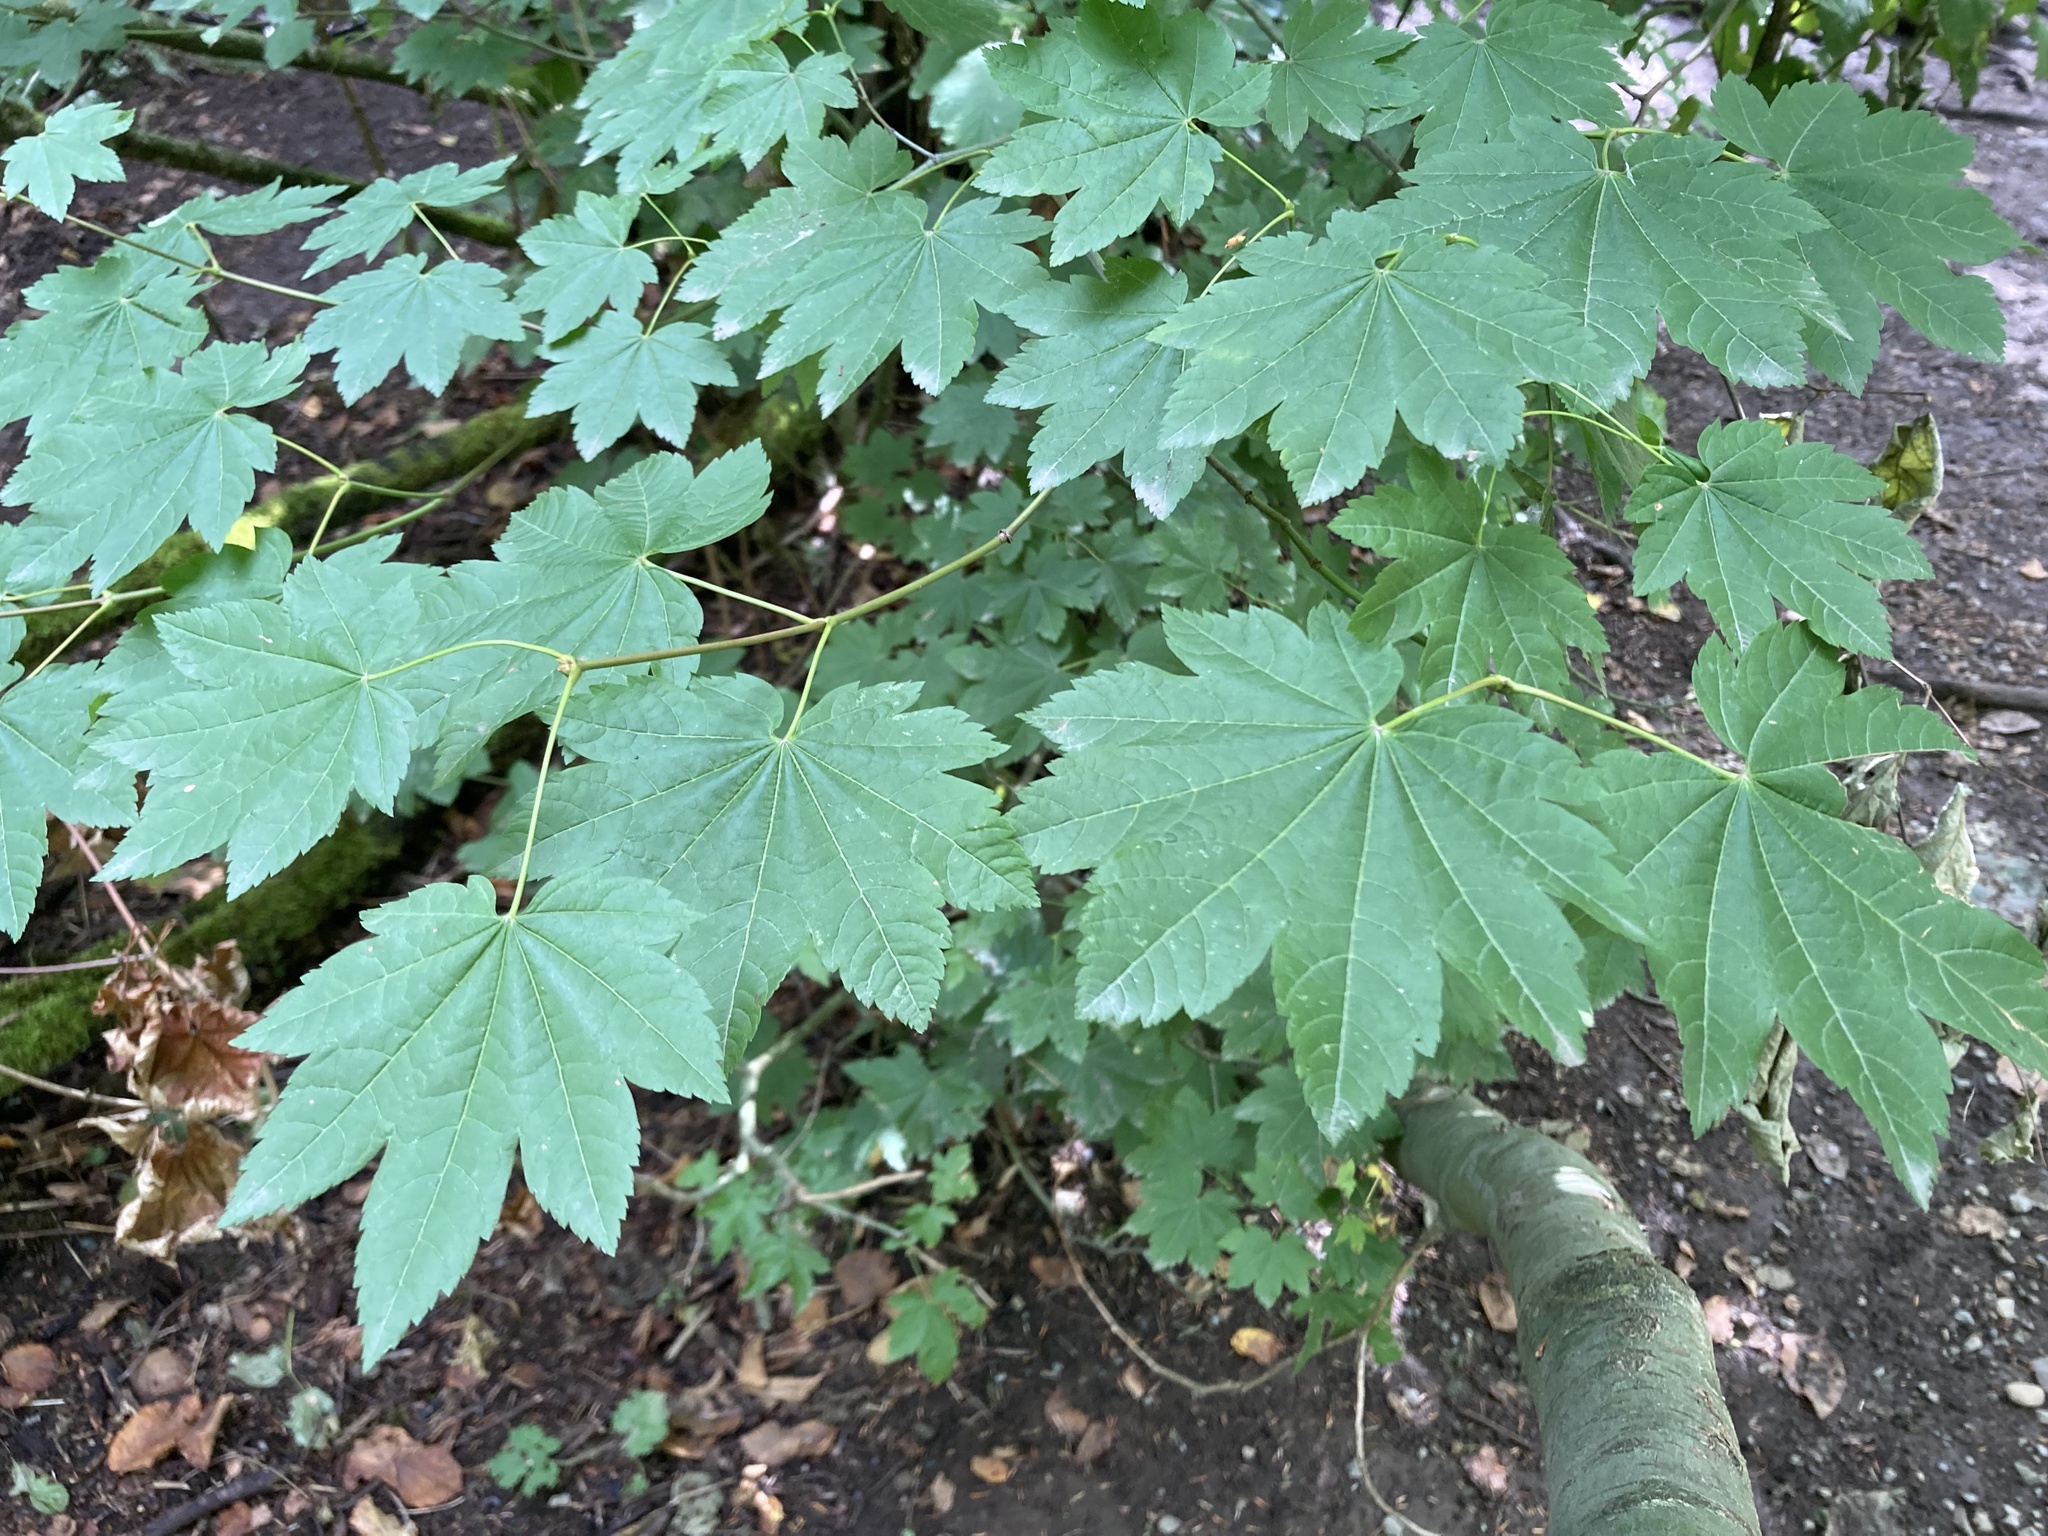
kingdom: Plantae
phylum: Tracheophyta
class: Magnoliopsida
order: Sapindales
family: Sapindaceae
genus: Acer
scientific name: Acer circinatum
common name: Vine maple
